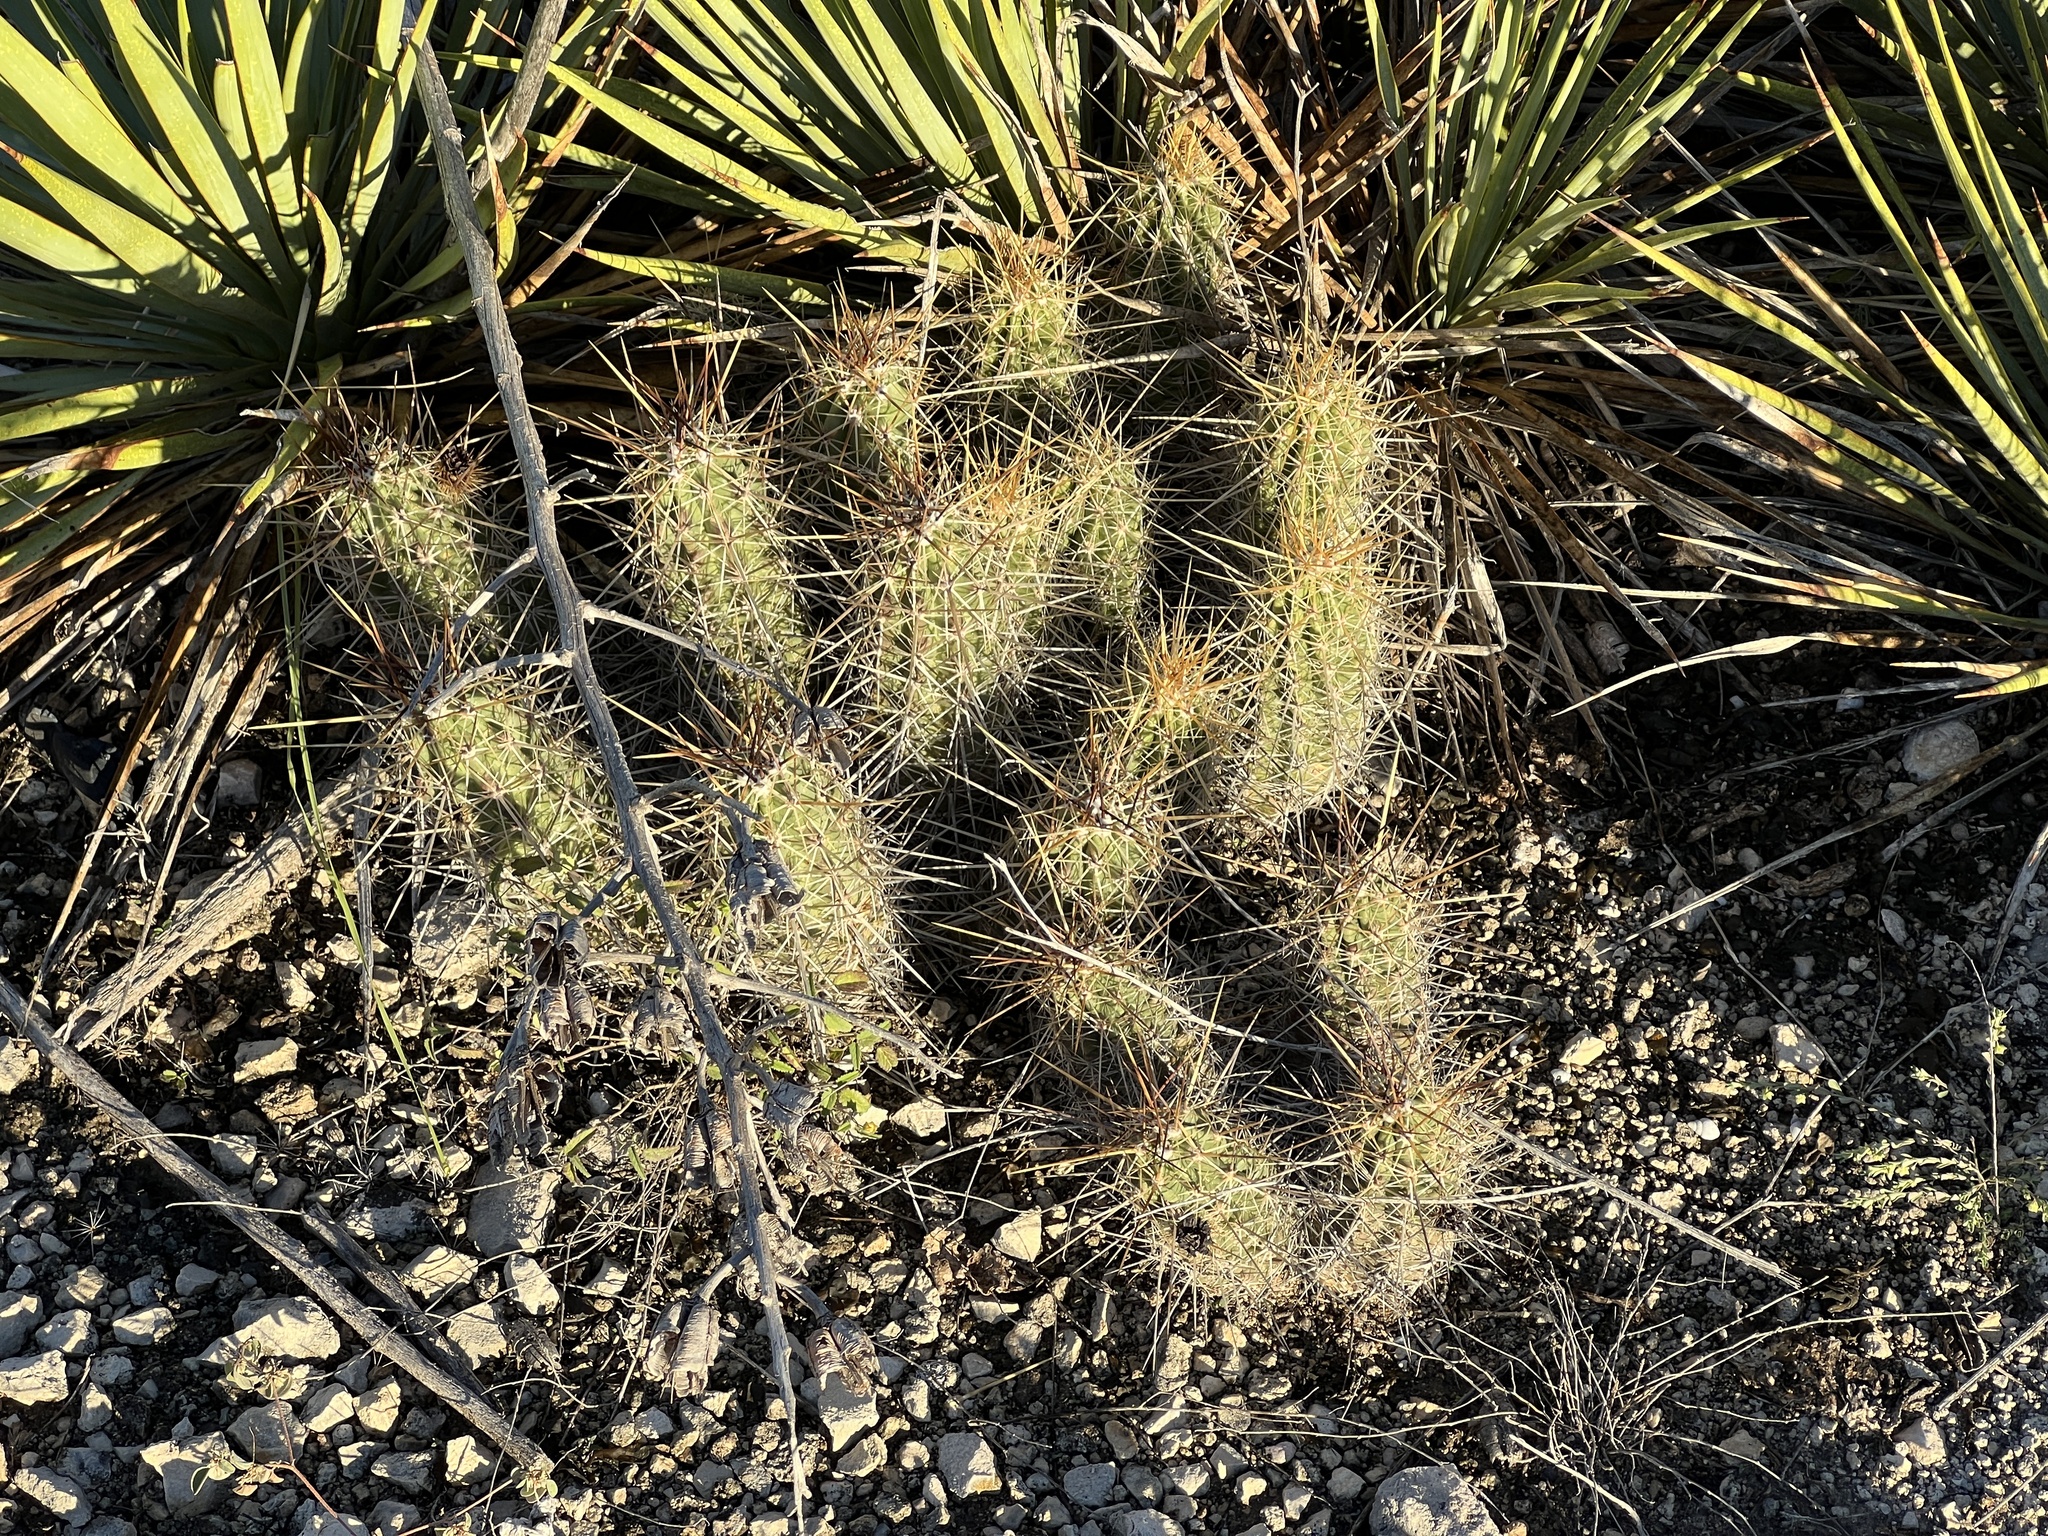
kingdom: Plantae
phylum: Tracheophyta
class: Magnoliopsida
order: Caryophyllales
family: Cactaceae
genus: Echinocereus
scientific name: Echinocereus enneacanthus
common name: Pitaya
